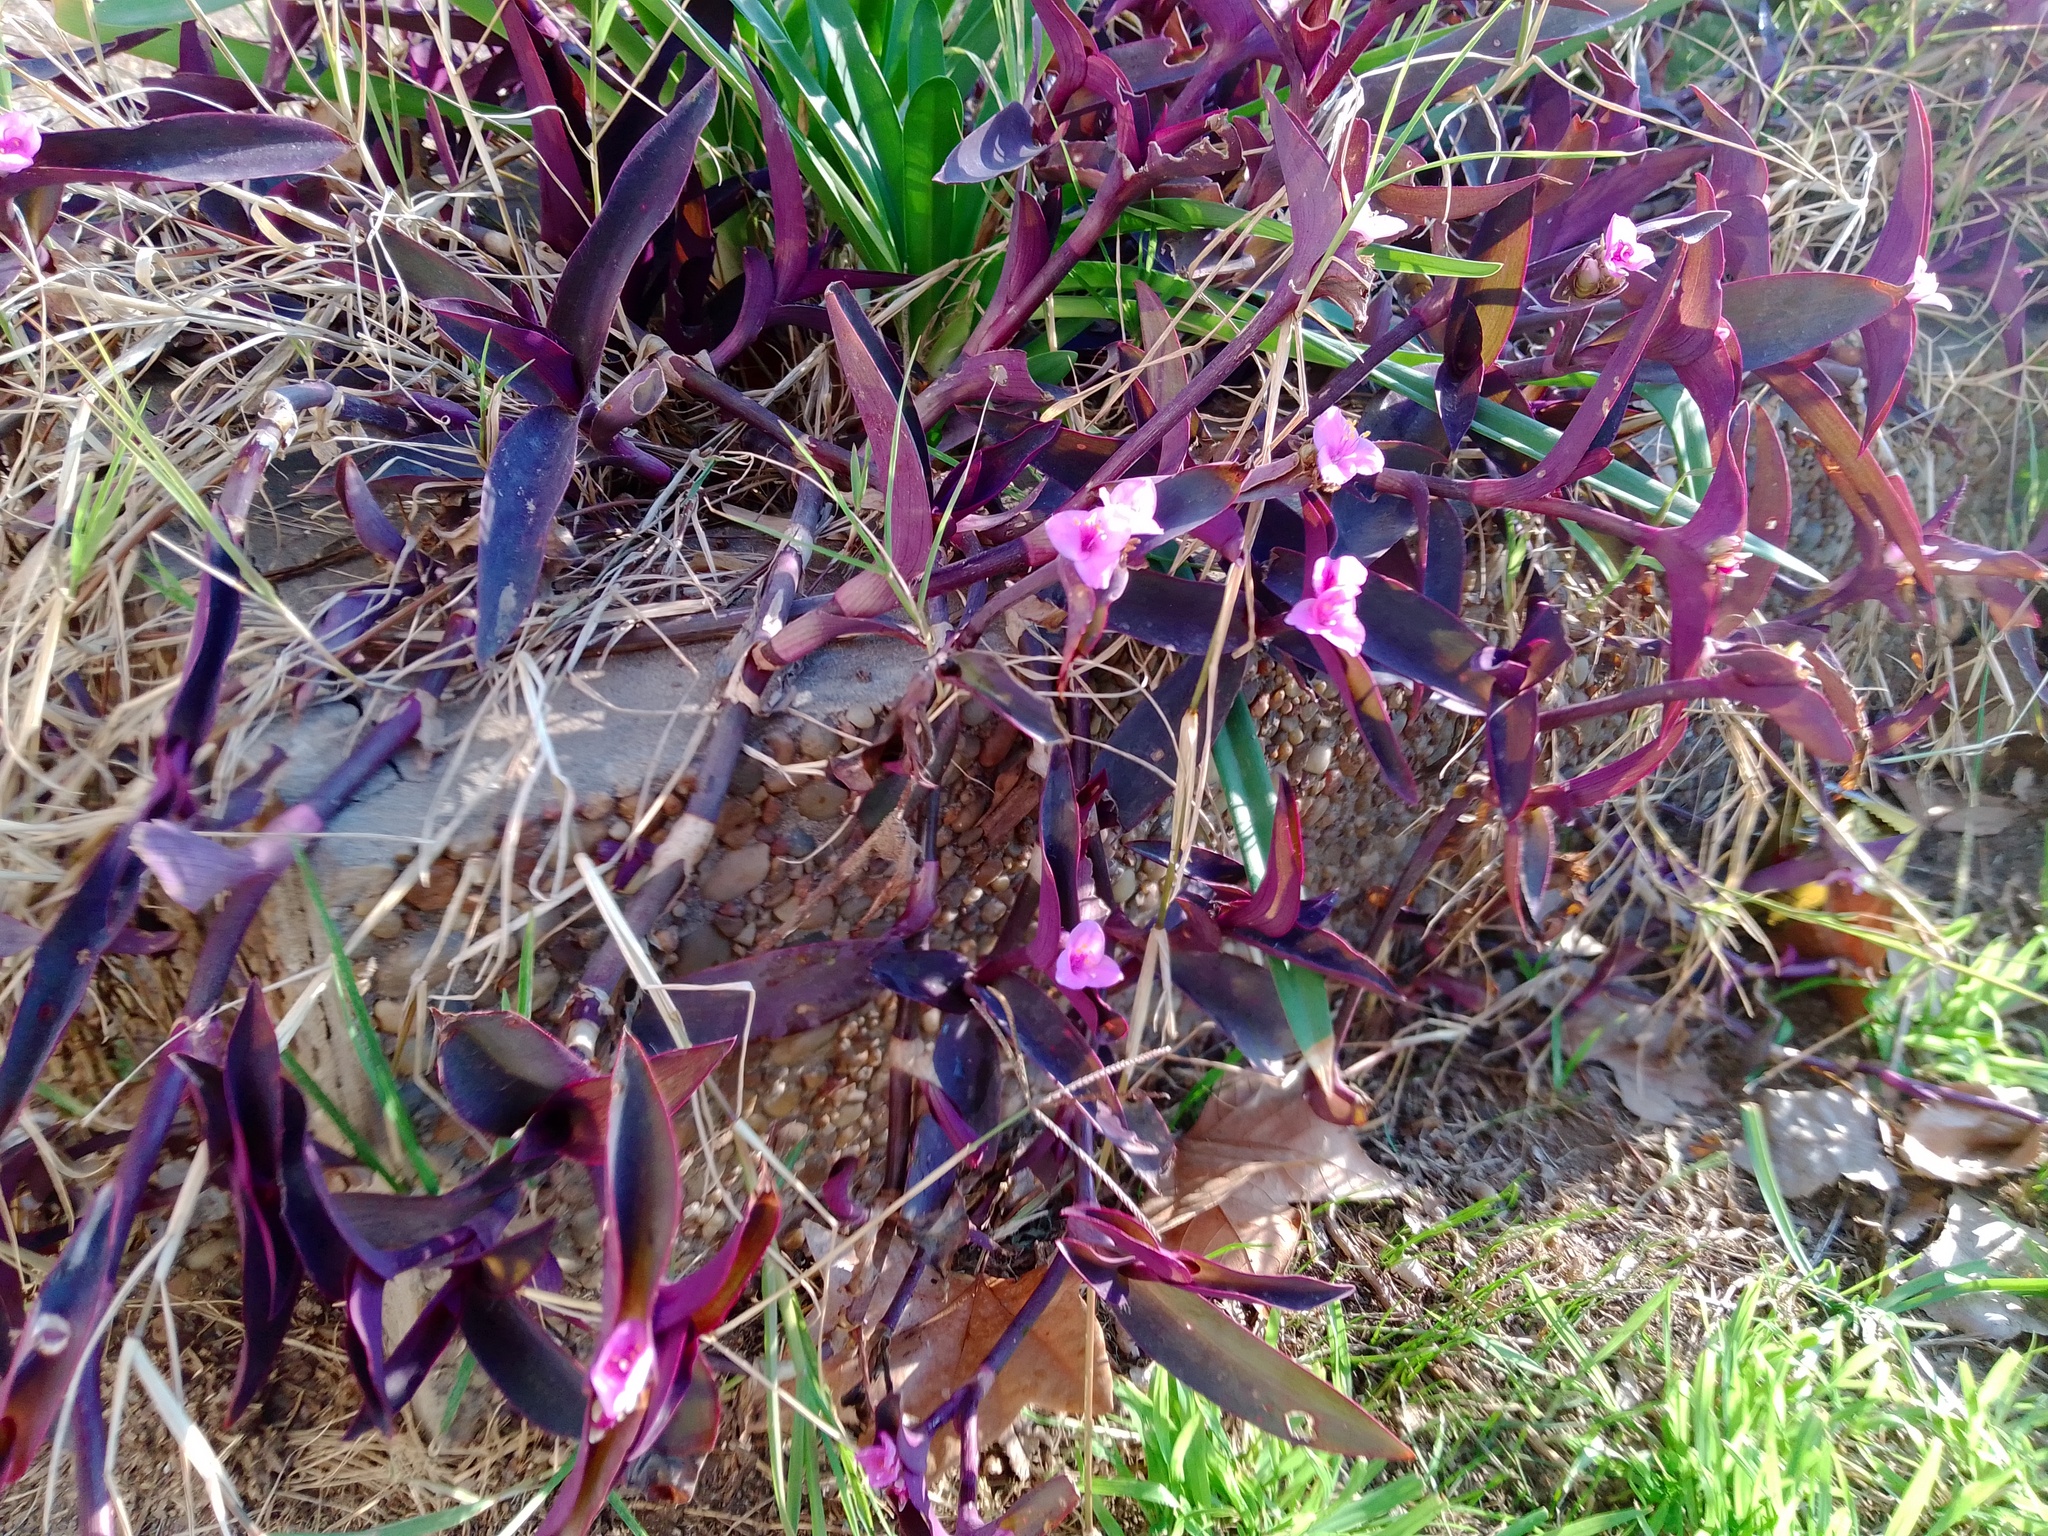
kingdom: Plantae
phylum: Tracheophyta
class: Liliopsida
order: Commelinales
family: Commelinaceae
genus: Tradescantia
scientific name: Tradescantia pallida
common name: Purpleheart
